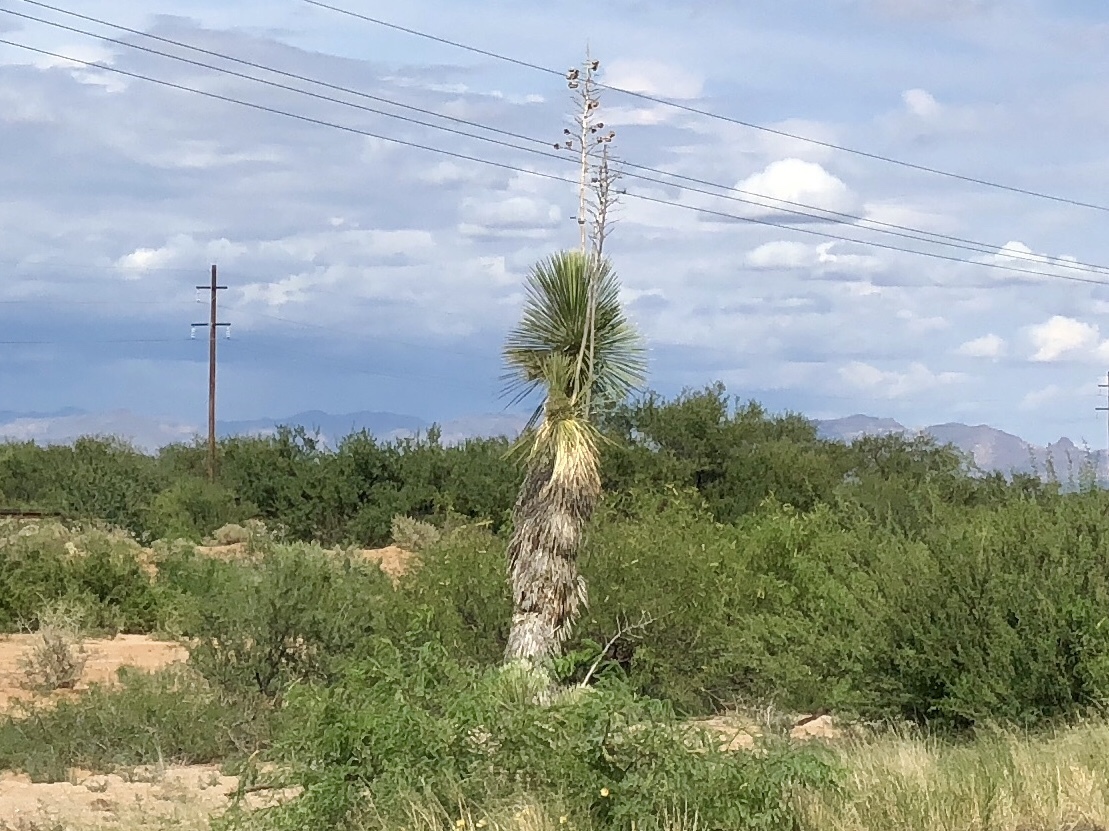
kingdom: Plantae
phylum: Tracheophyta
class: Liliopsida
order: Asparagales
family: Asparagaceae
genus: Yucca
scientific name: Yucca elata
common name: Palmella
